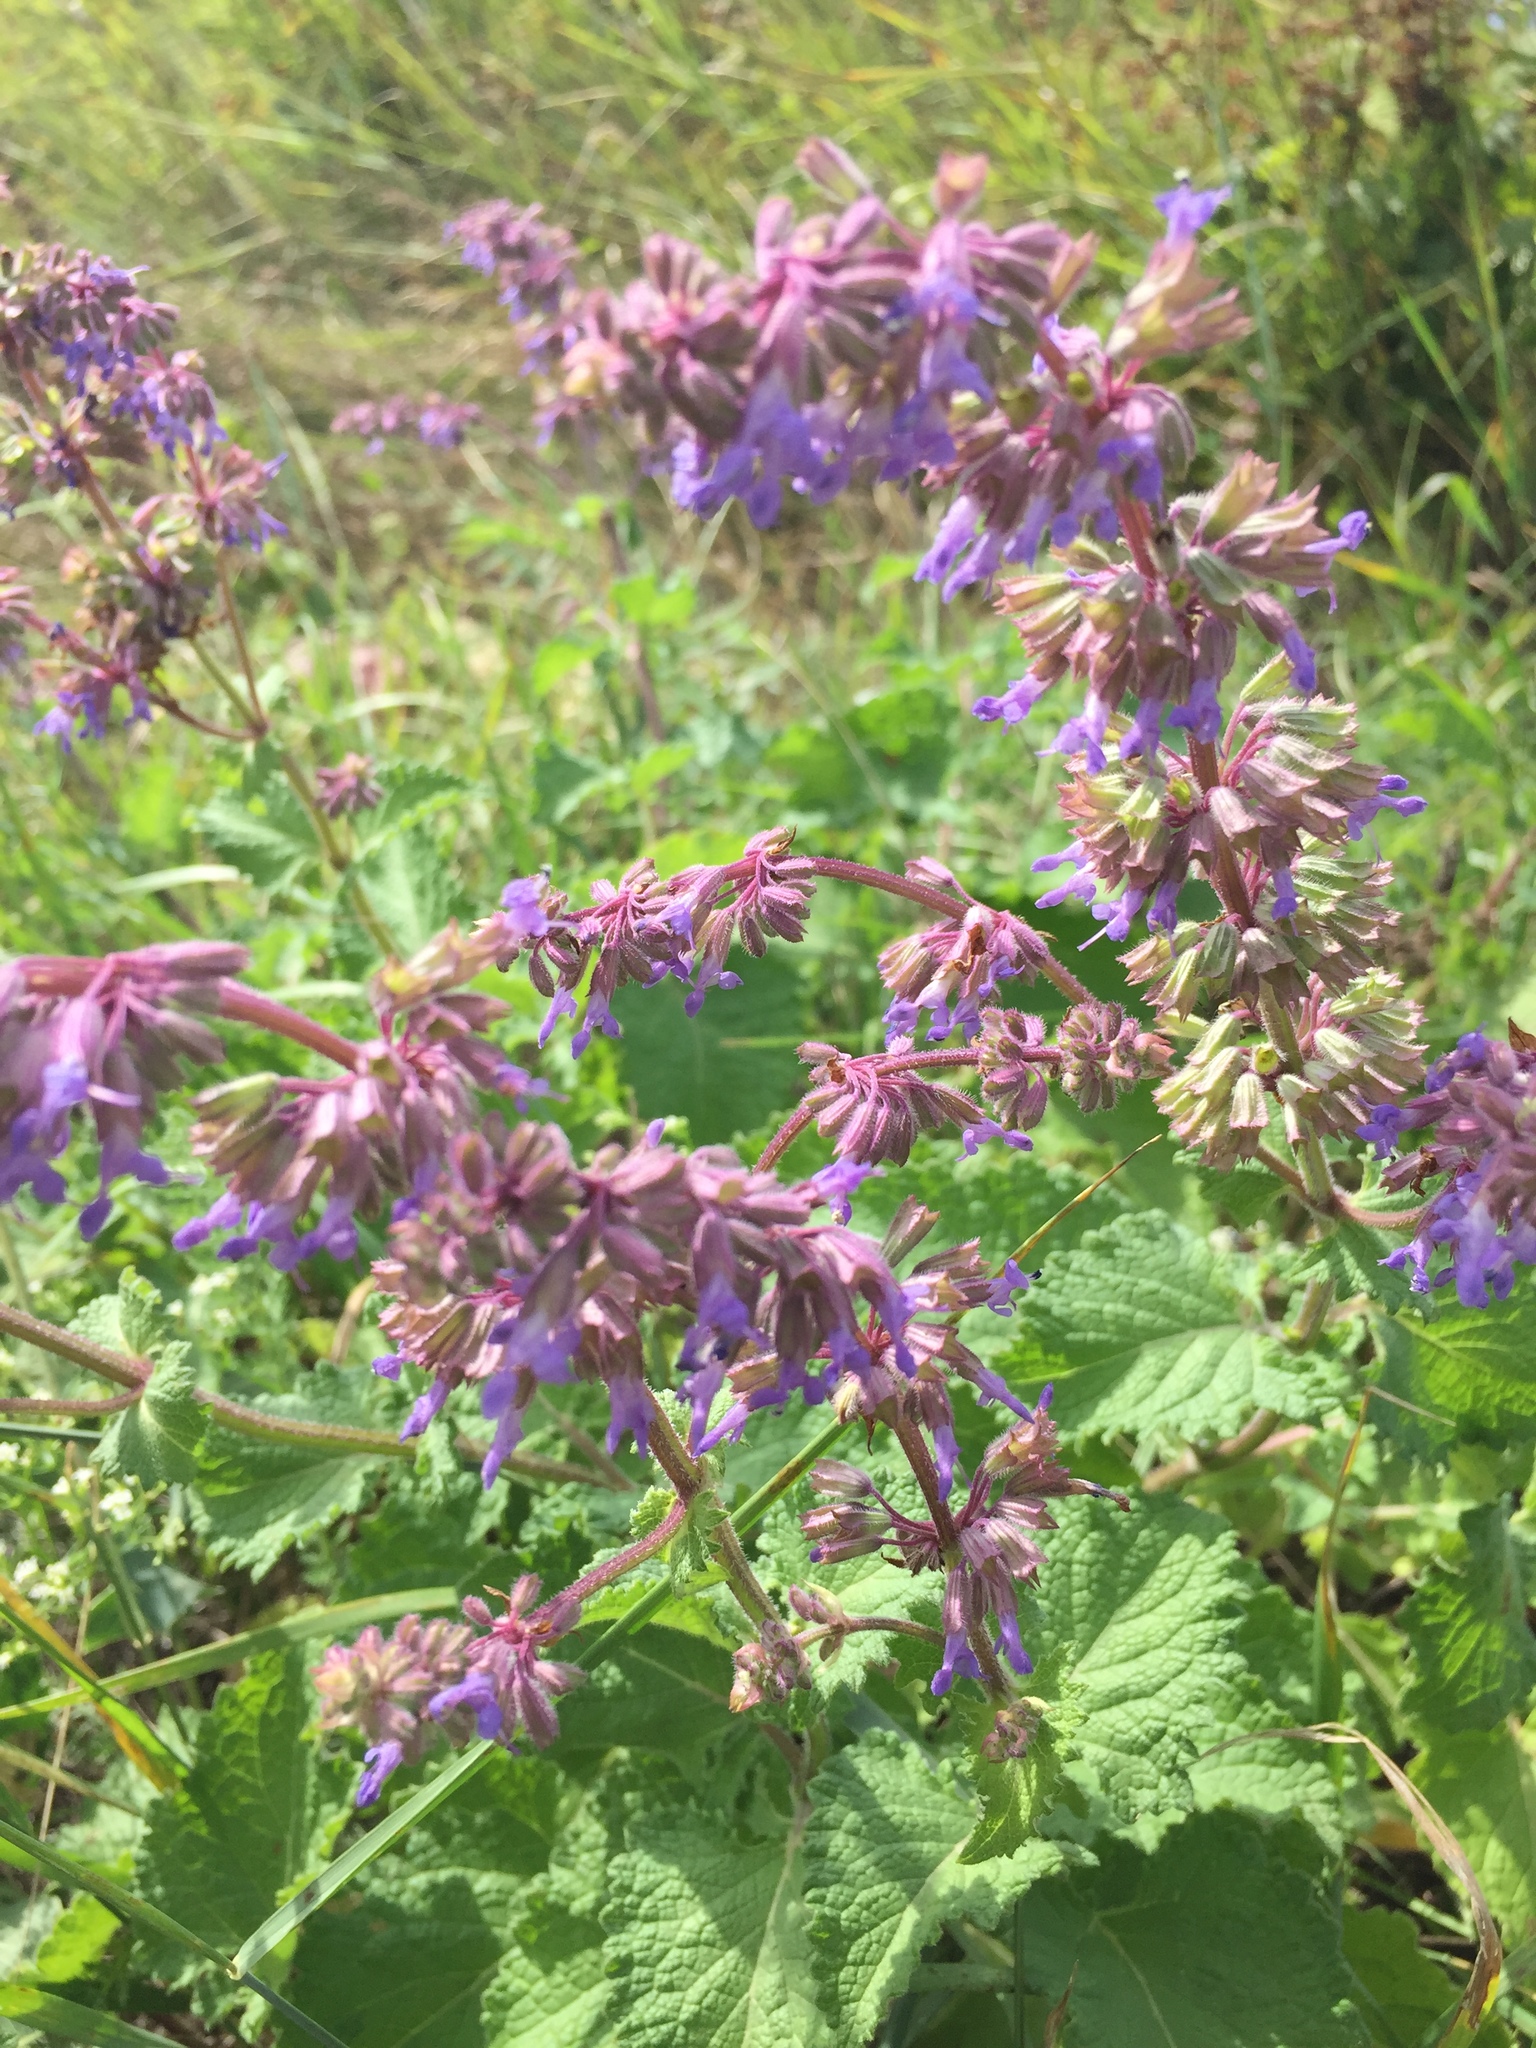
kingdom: Plantae
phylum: Tracheophyta
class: Magnoliopsida
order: Lamiales
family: Lamiaceae
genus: Salvia
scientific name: Salvia verticillata
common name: Whorled clary
